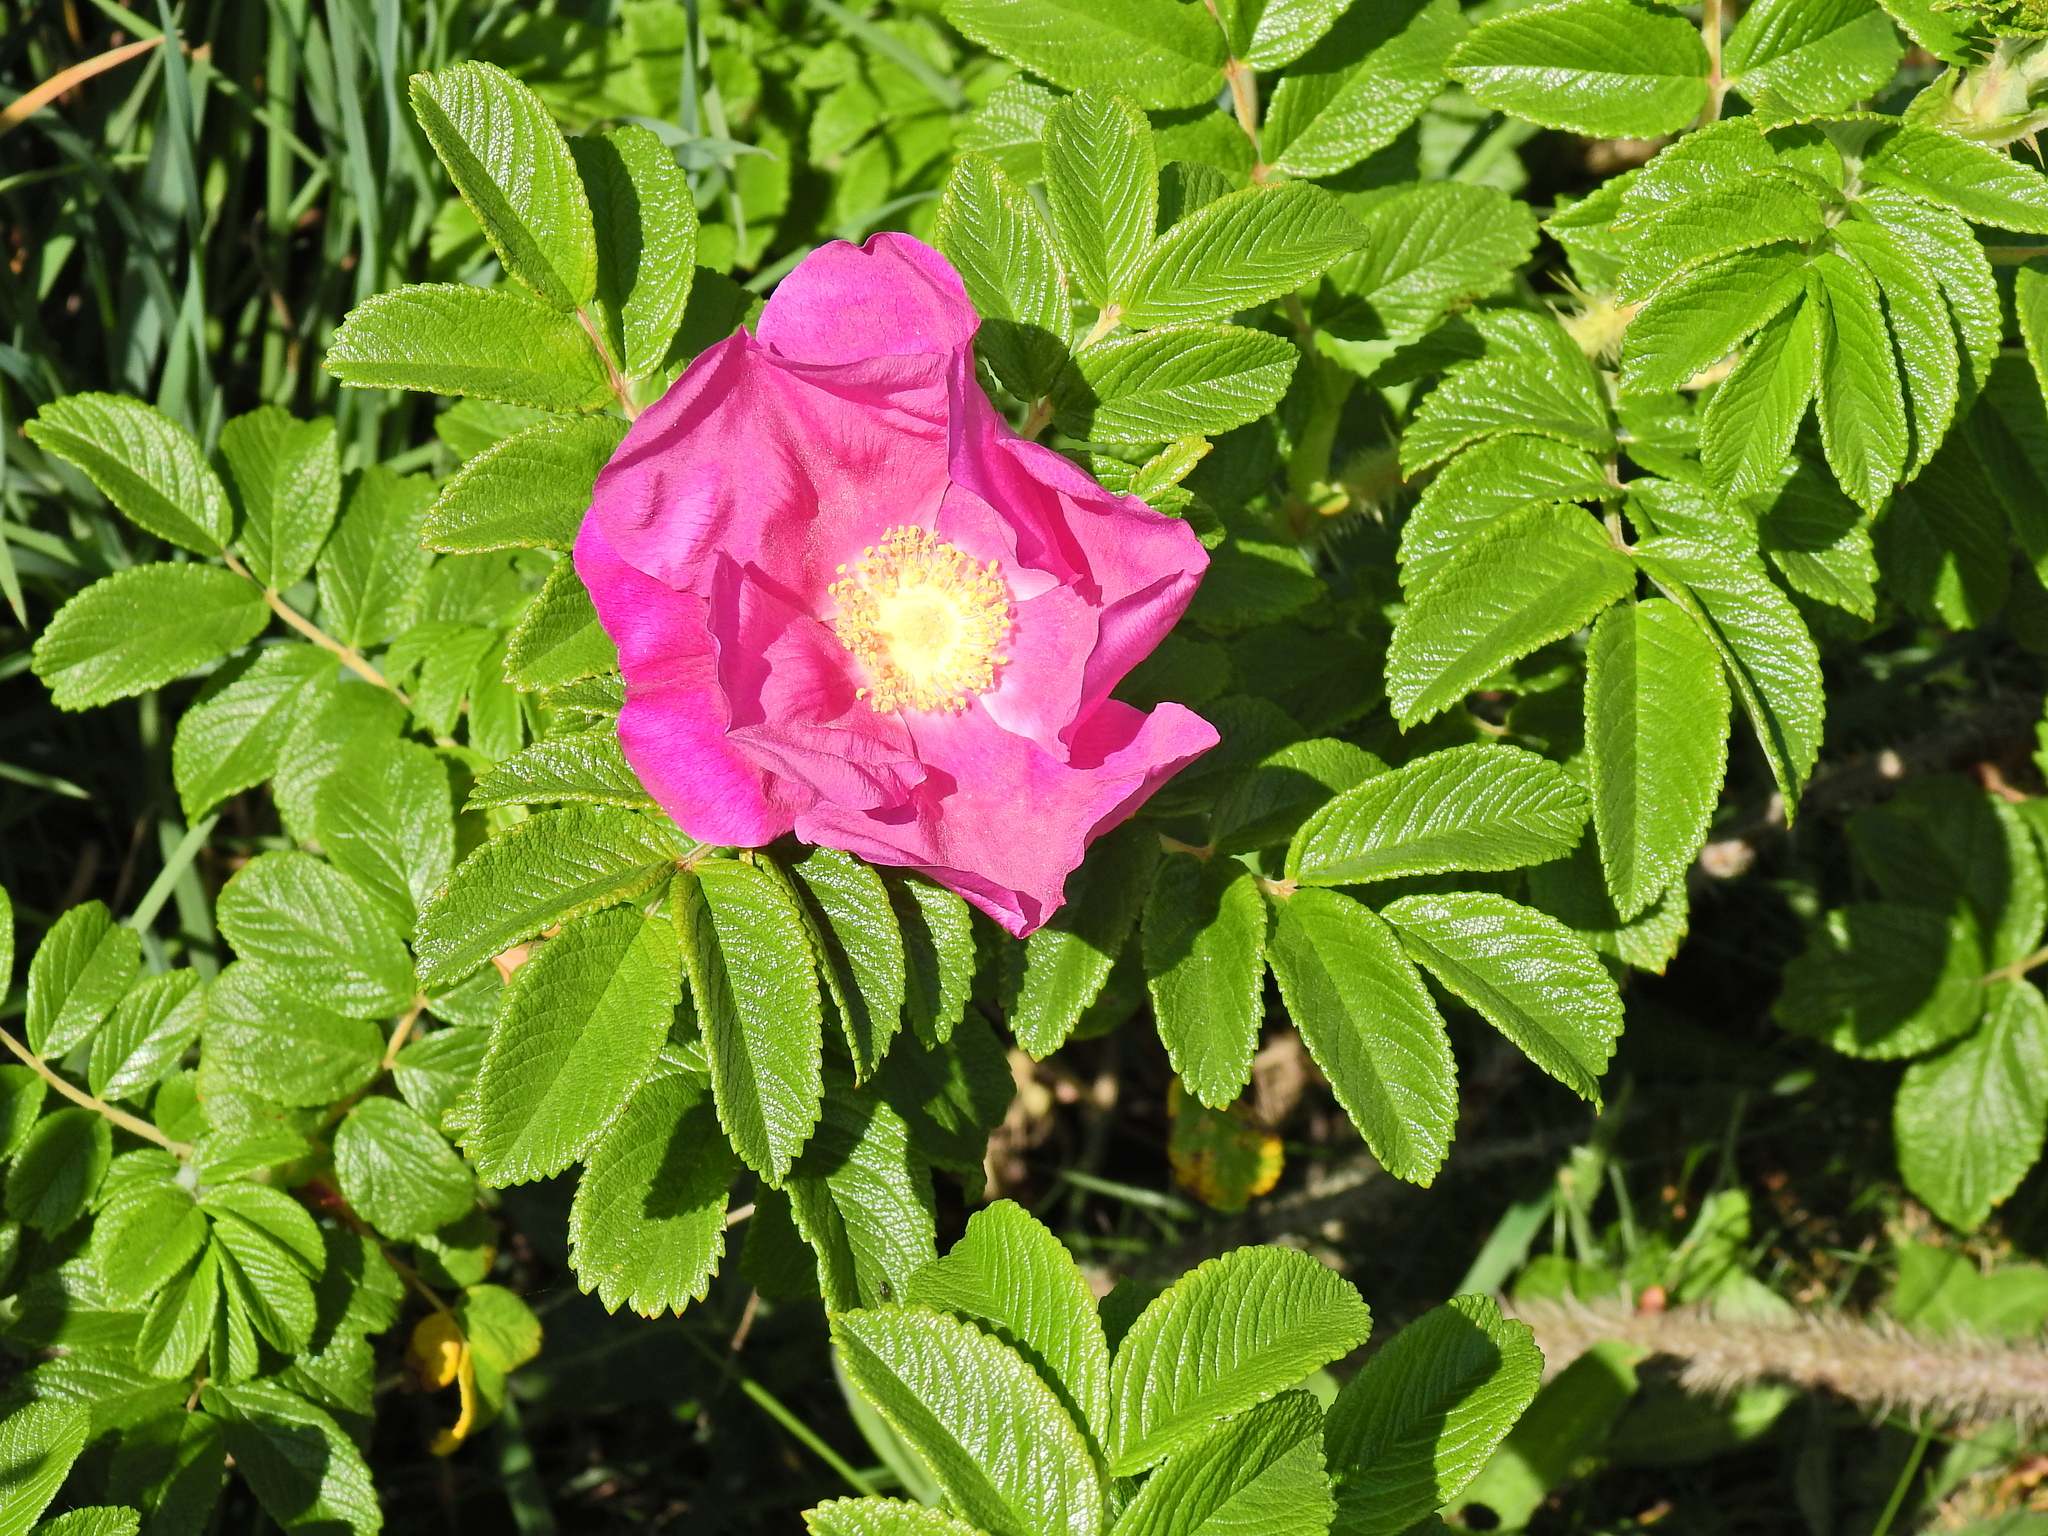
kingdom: Plantae
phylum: Tracheophyta
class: Magnoliopsida
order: Rosales
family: Rosaceae
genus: Rosa
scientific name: Rosa rugosa
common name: Japanese rose
